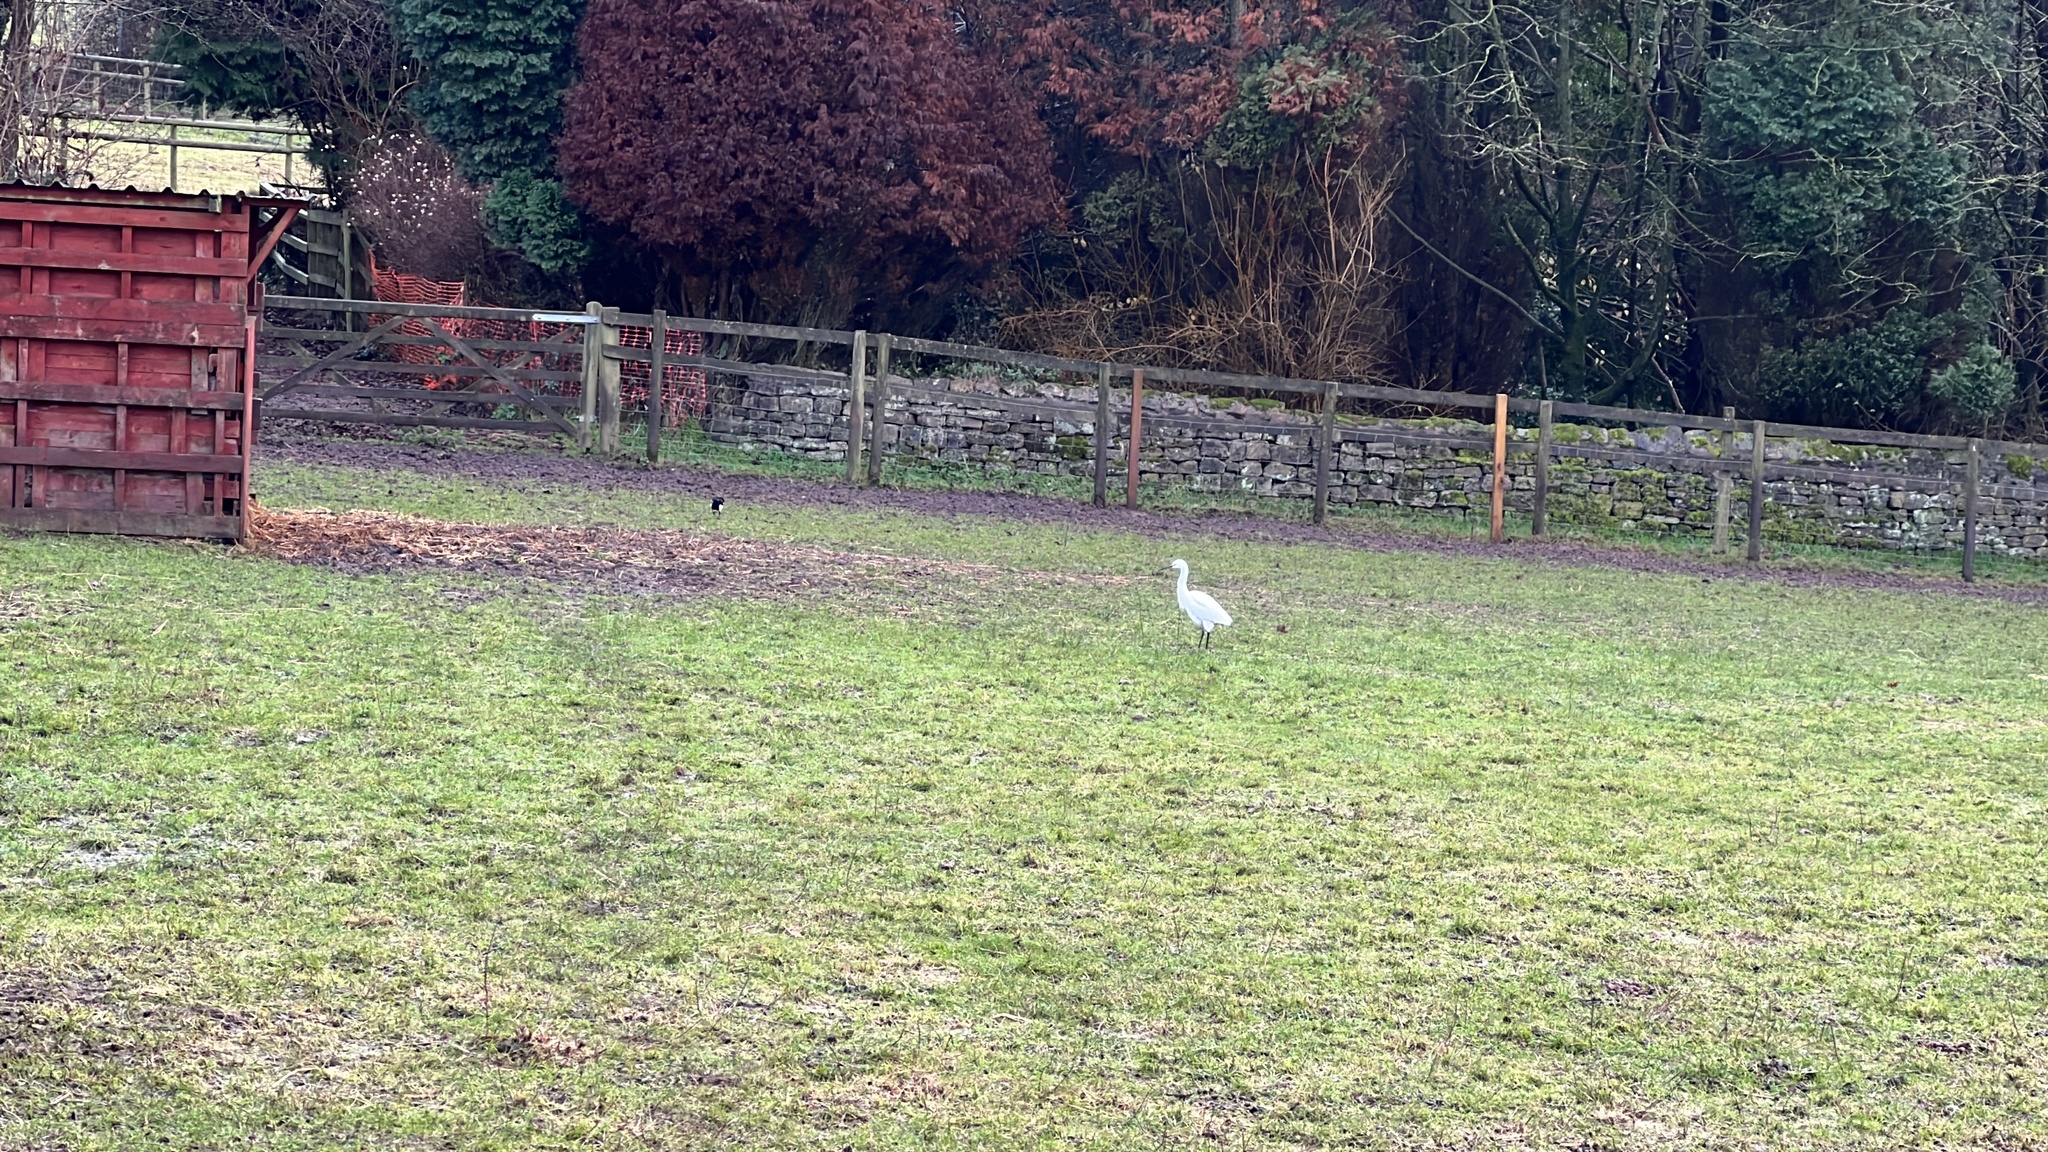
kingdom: Animalia
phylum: Chordata
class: Aves
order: Pelecaniformes
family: Ardeidae
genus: Egretta
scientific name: Egretta garzetta
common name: Little egret
